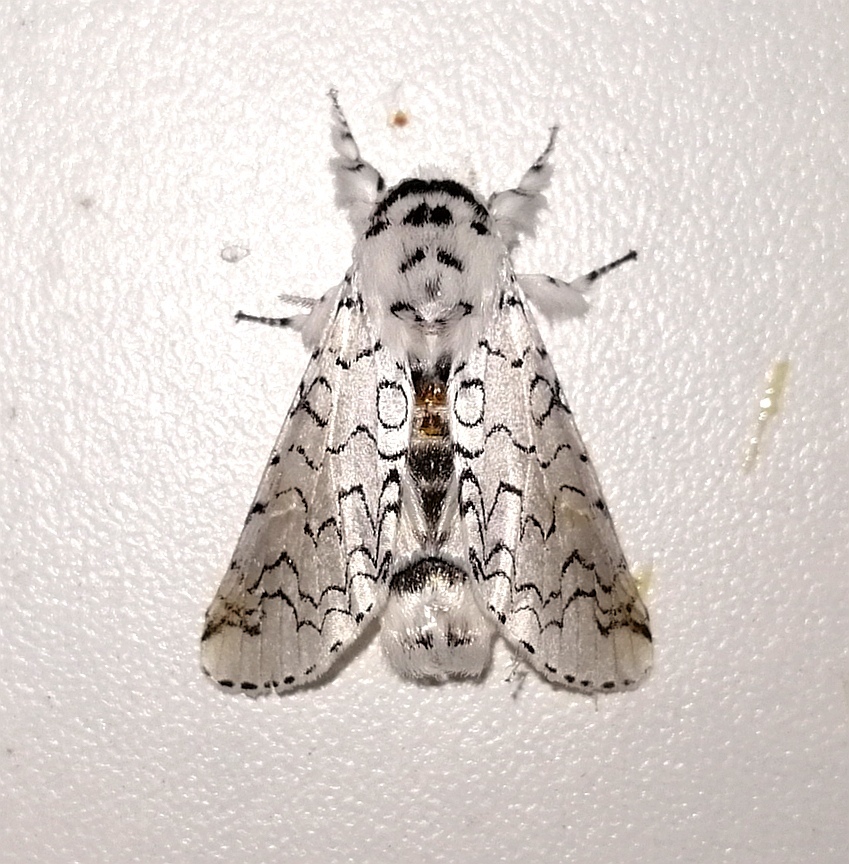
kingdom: Animalia
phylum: Arthropoda
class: Insecta
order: Lepidoptera
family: Notodontidae
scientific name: Notodontidae
